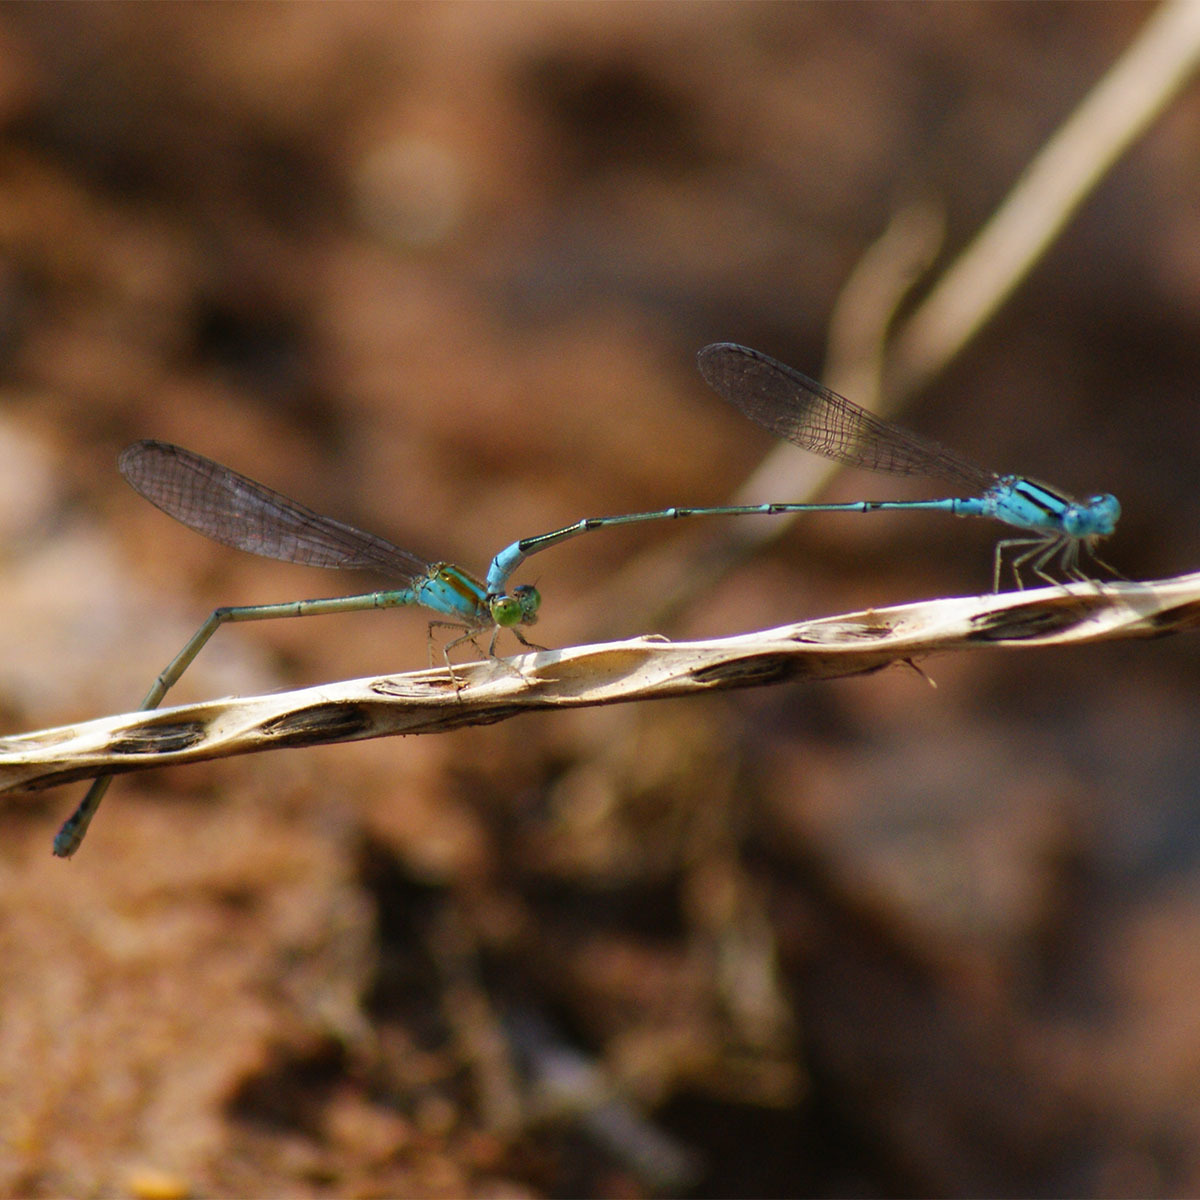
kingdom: Animalia
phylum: Arthropoda
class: Insecta
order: Odonata
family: Coenagrionidae
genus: Pseudagrion
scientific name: Pseudagrion microcephalum
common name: Blue riverdamsel
